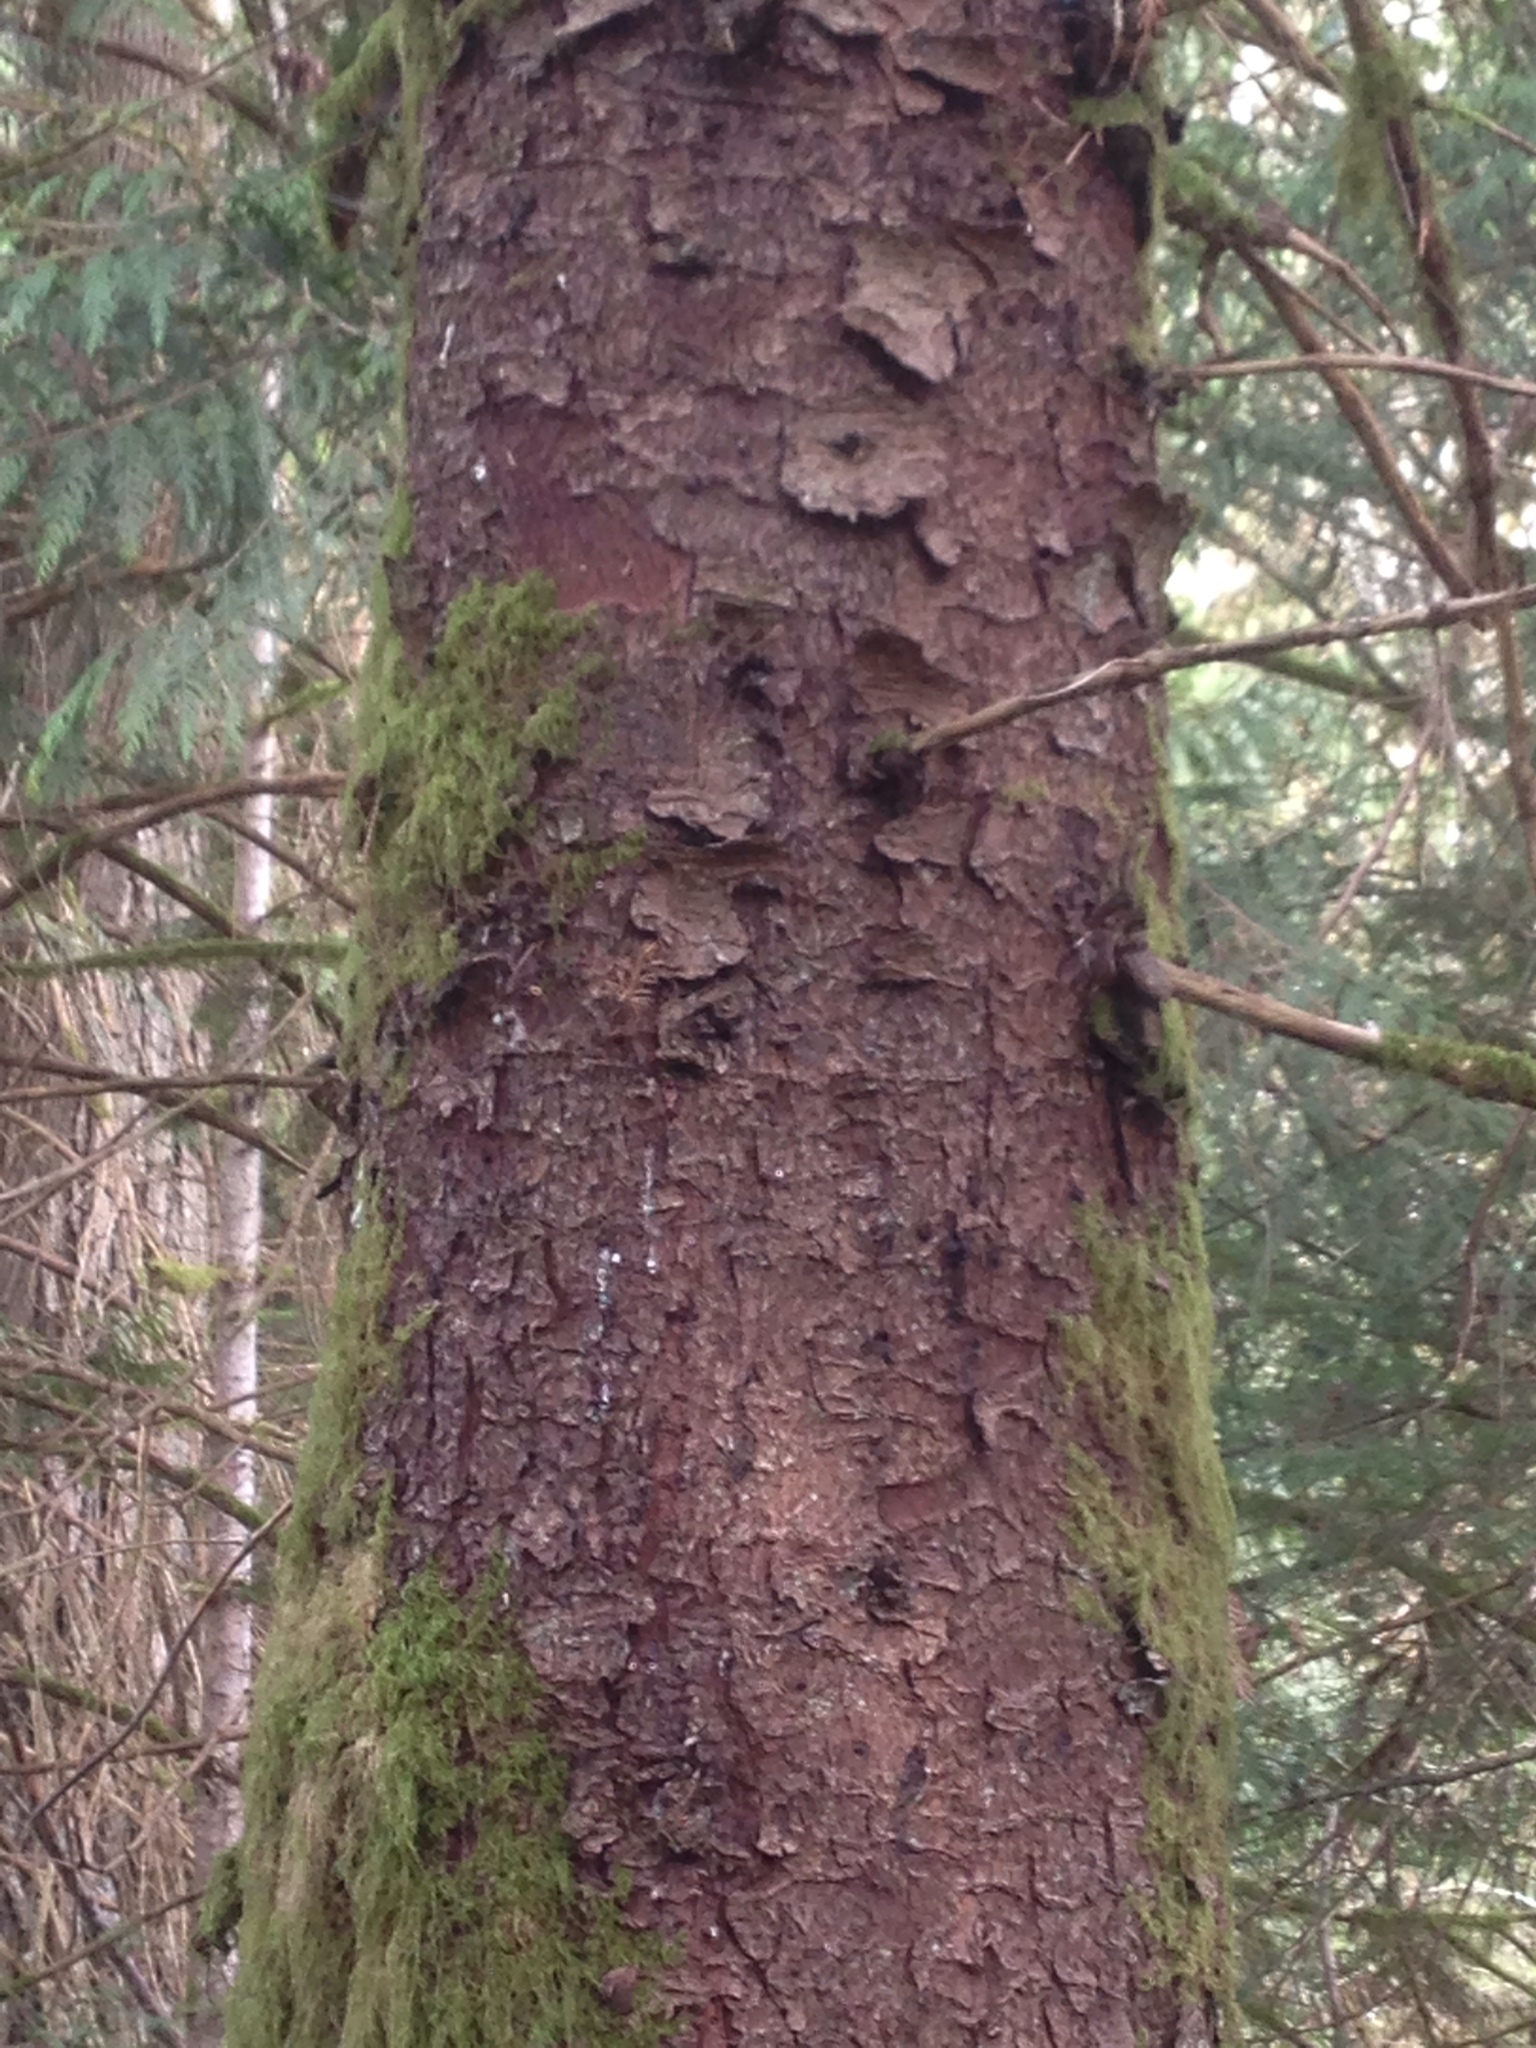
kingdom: Plantae
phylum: Tracheophyta
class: Pinopsida
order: Pinales
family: Pinaceae
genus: Picea
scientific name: Picea sitchensis
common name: Sitka spruce
